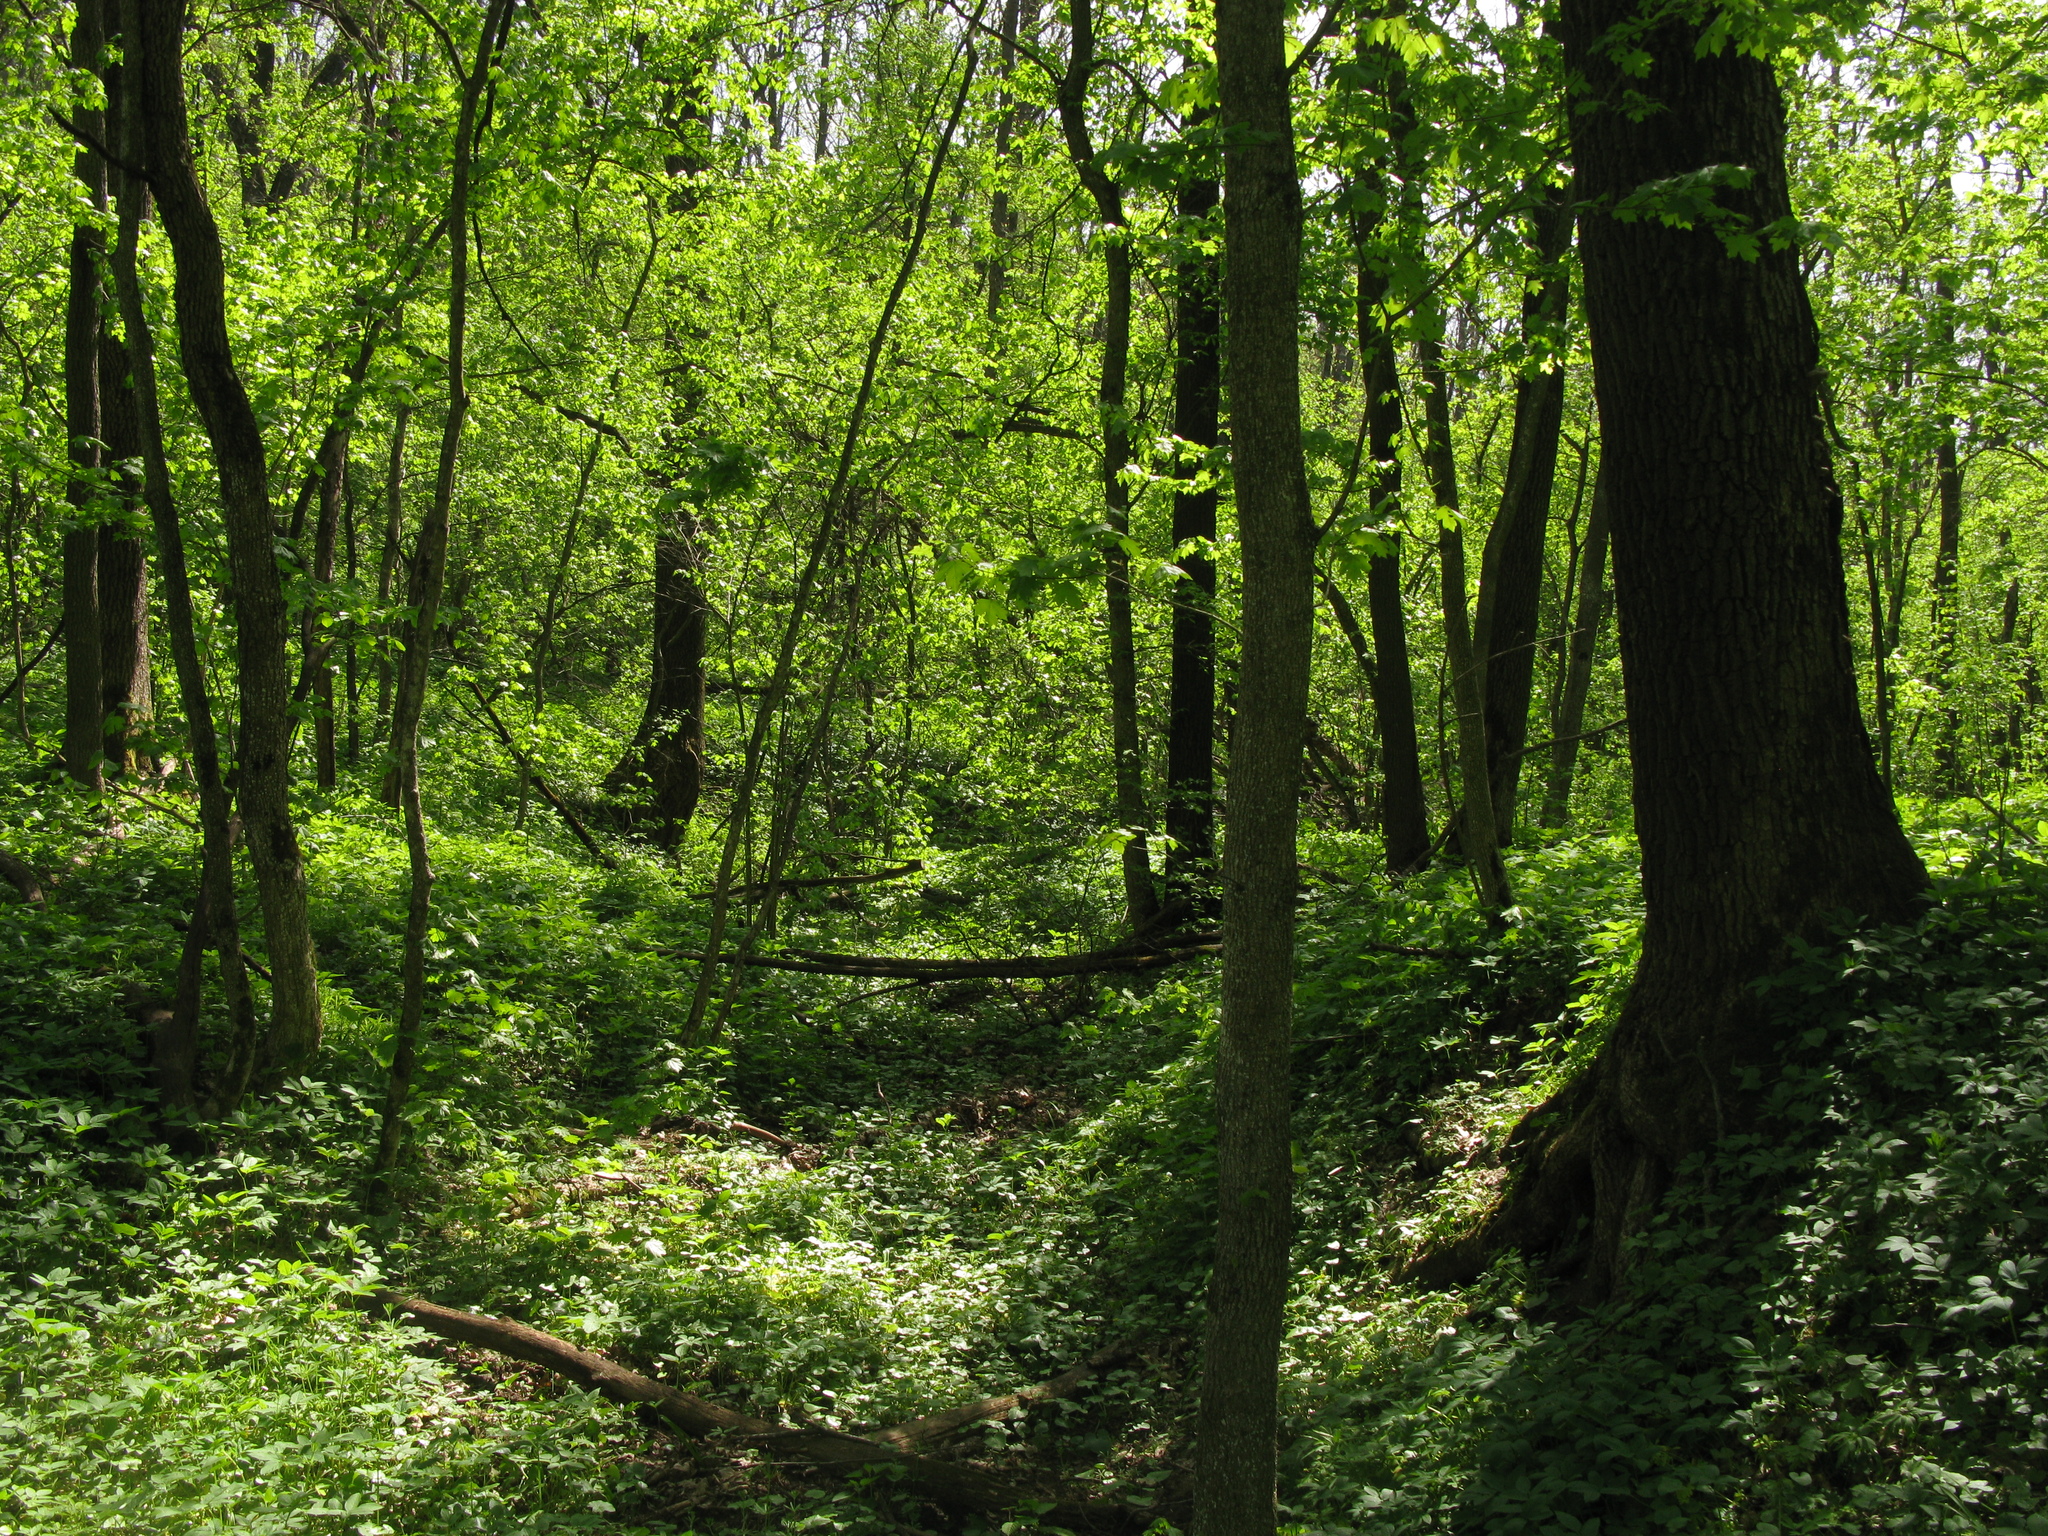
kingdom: Plantae
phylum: Tracheophyta
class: Magnoliopsida
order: Sapindales
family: Sapindaceae
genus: Acer
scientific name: Acer campestre
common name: Field maple
